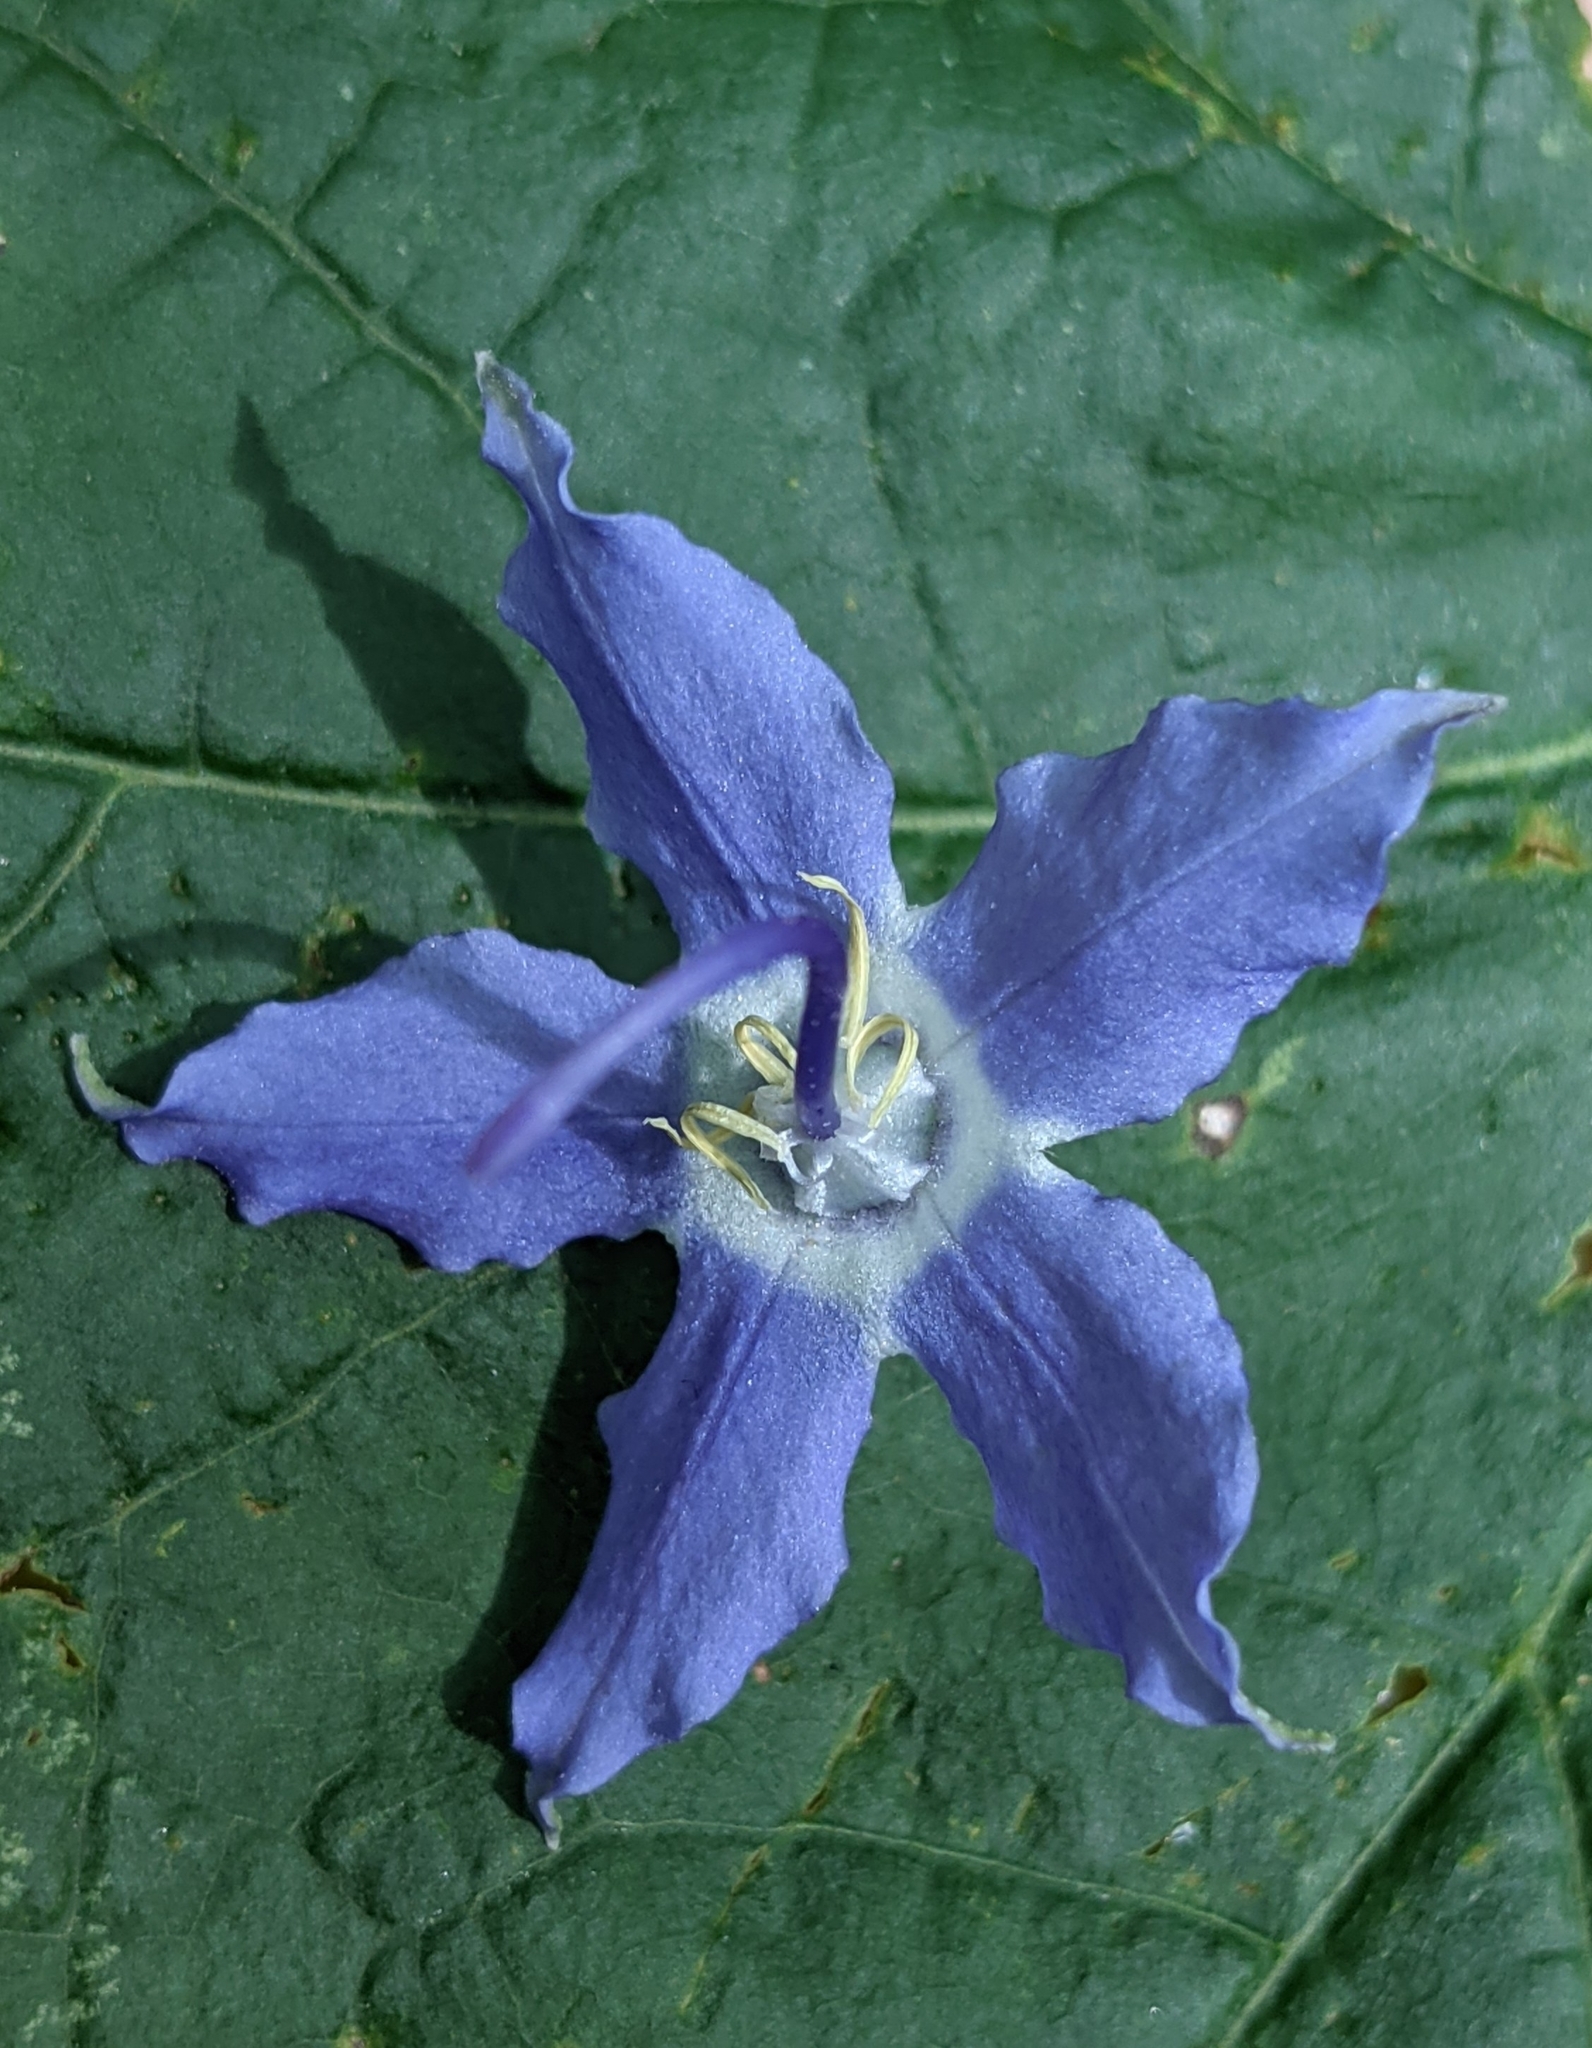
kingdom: Plantae
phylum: Tracheophyta
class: Magnoliopsida
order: Asterales
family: Campanulaceae
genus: Campanulastrum
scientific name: Campanulastrum americanum
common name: American bellflower
